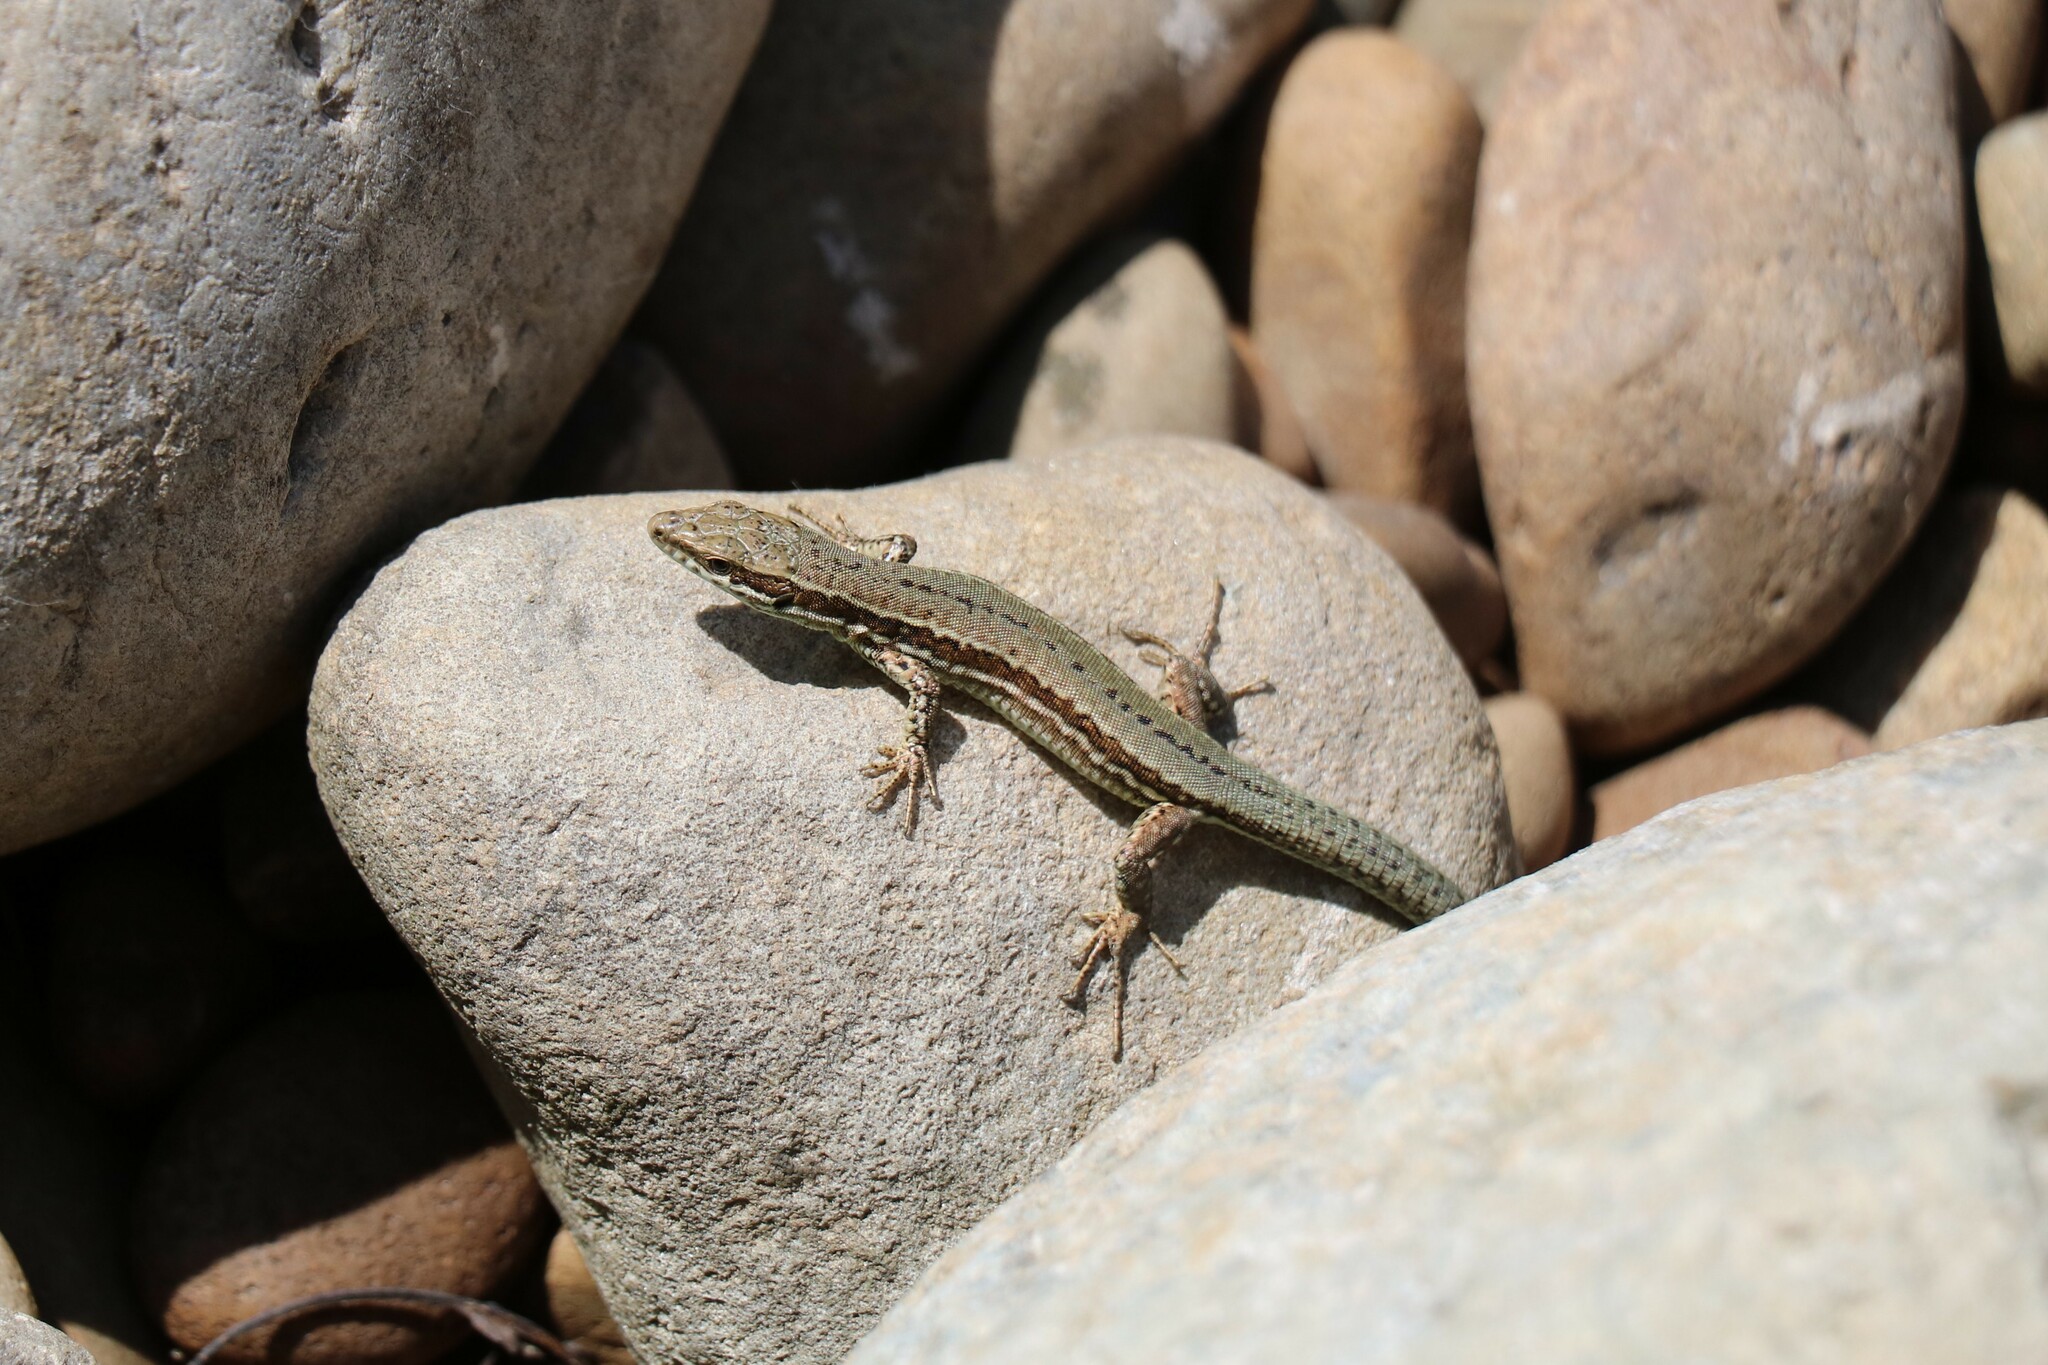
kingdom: Animalia
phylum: Chordata
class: Squamata
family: Lacertidae
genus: Podarcis
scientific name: Podarcis muralis
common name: Common wall lizard
